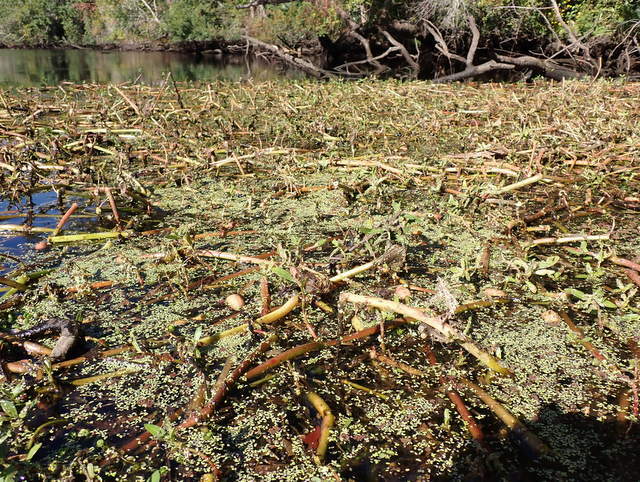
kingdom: Animalia
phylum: Arthropoda
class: Insecta
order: Coleoptera
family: Chrysomelidae
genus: Agasicles
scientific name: Agasicles hygrophila
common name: Alligatorweed flea beetle
